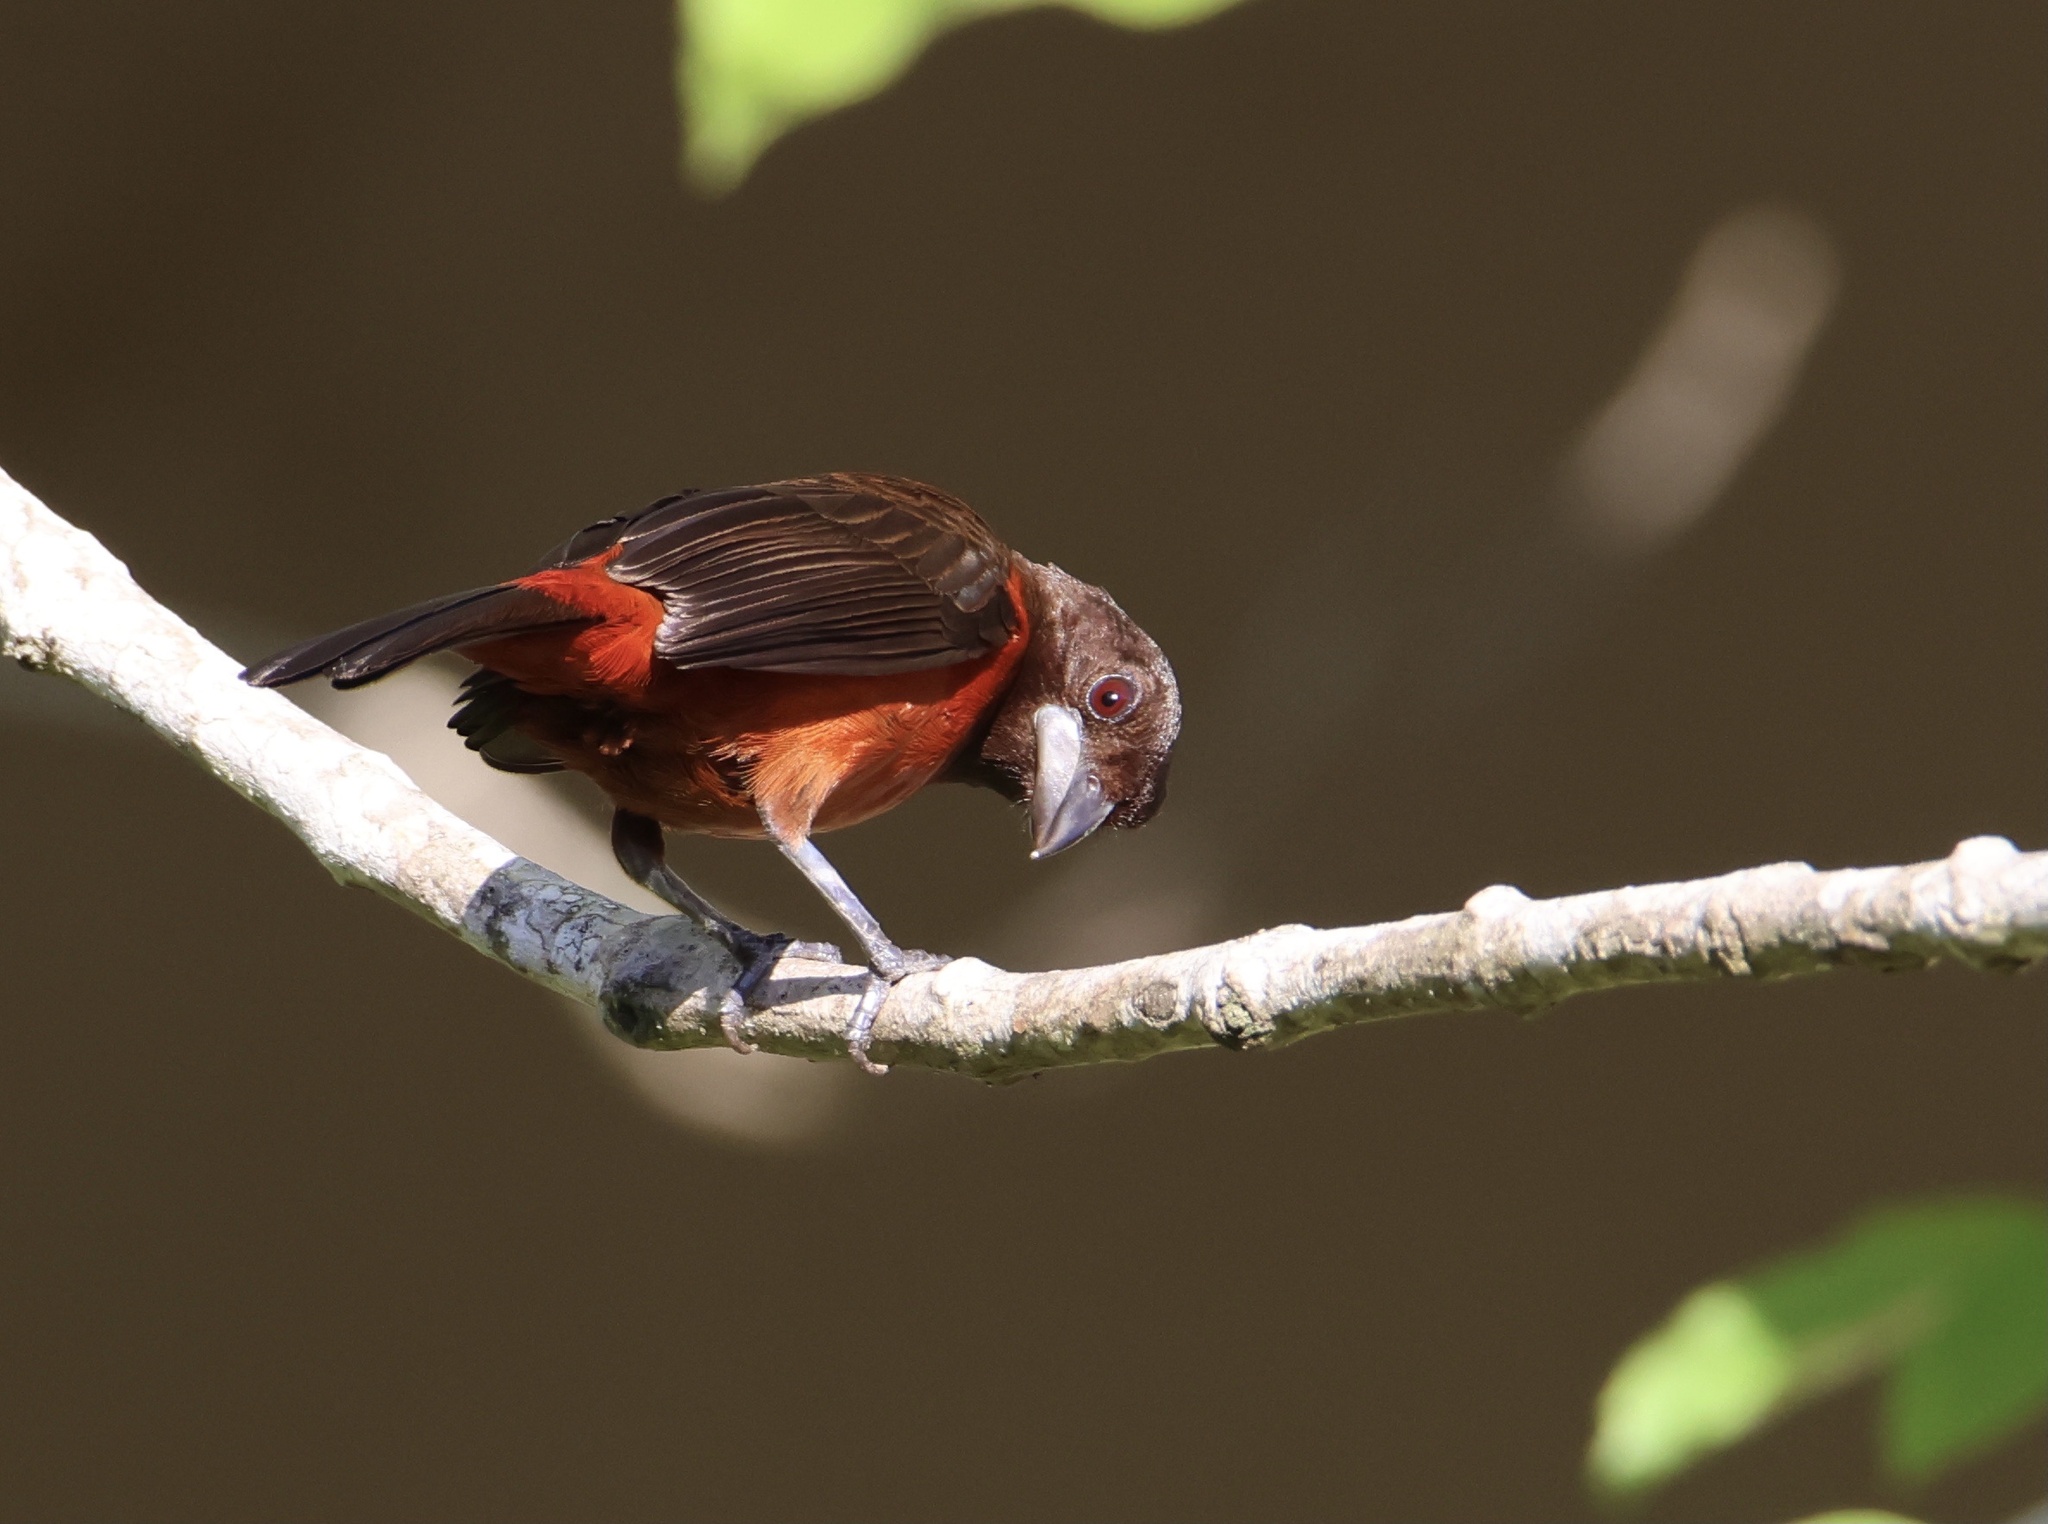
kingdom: Animalia
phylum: Chordata
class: Aves
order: Passeriformes
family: Thraupidae
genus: Ramphocelus
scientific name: Ramphocelus dimidiatus
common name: Crimson-backed tanager
